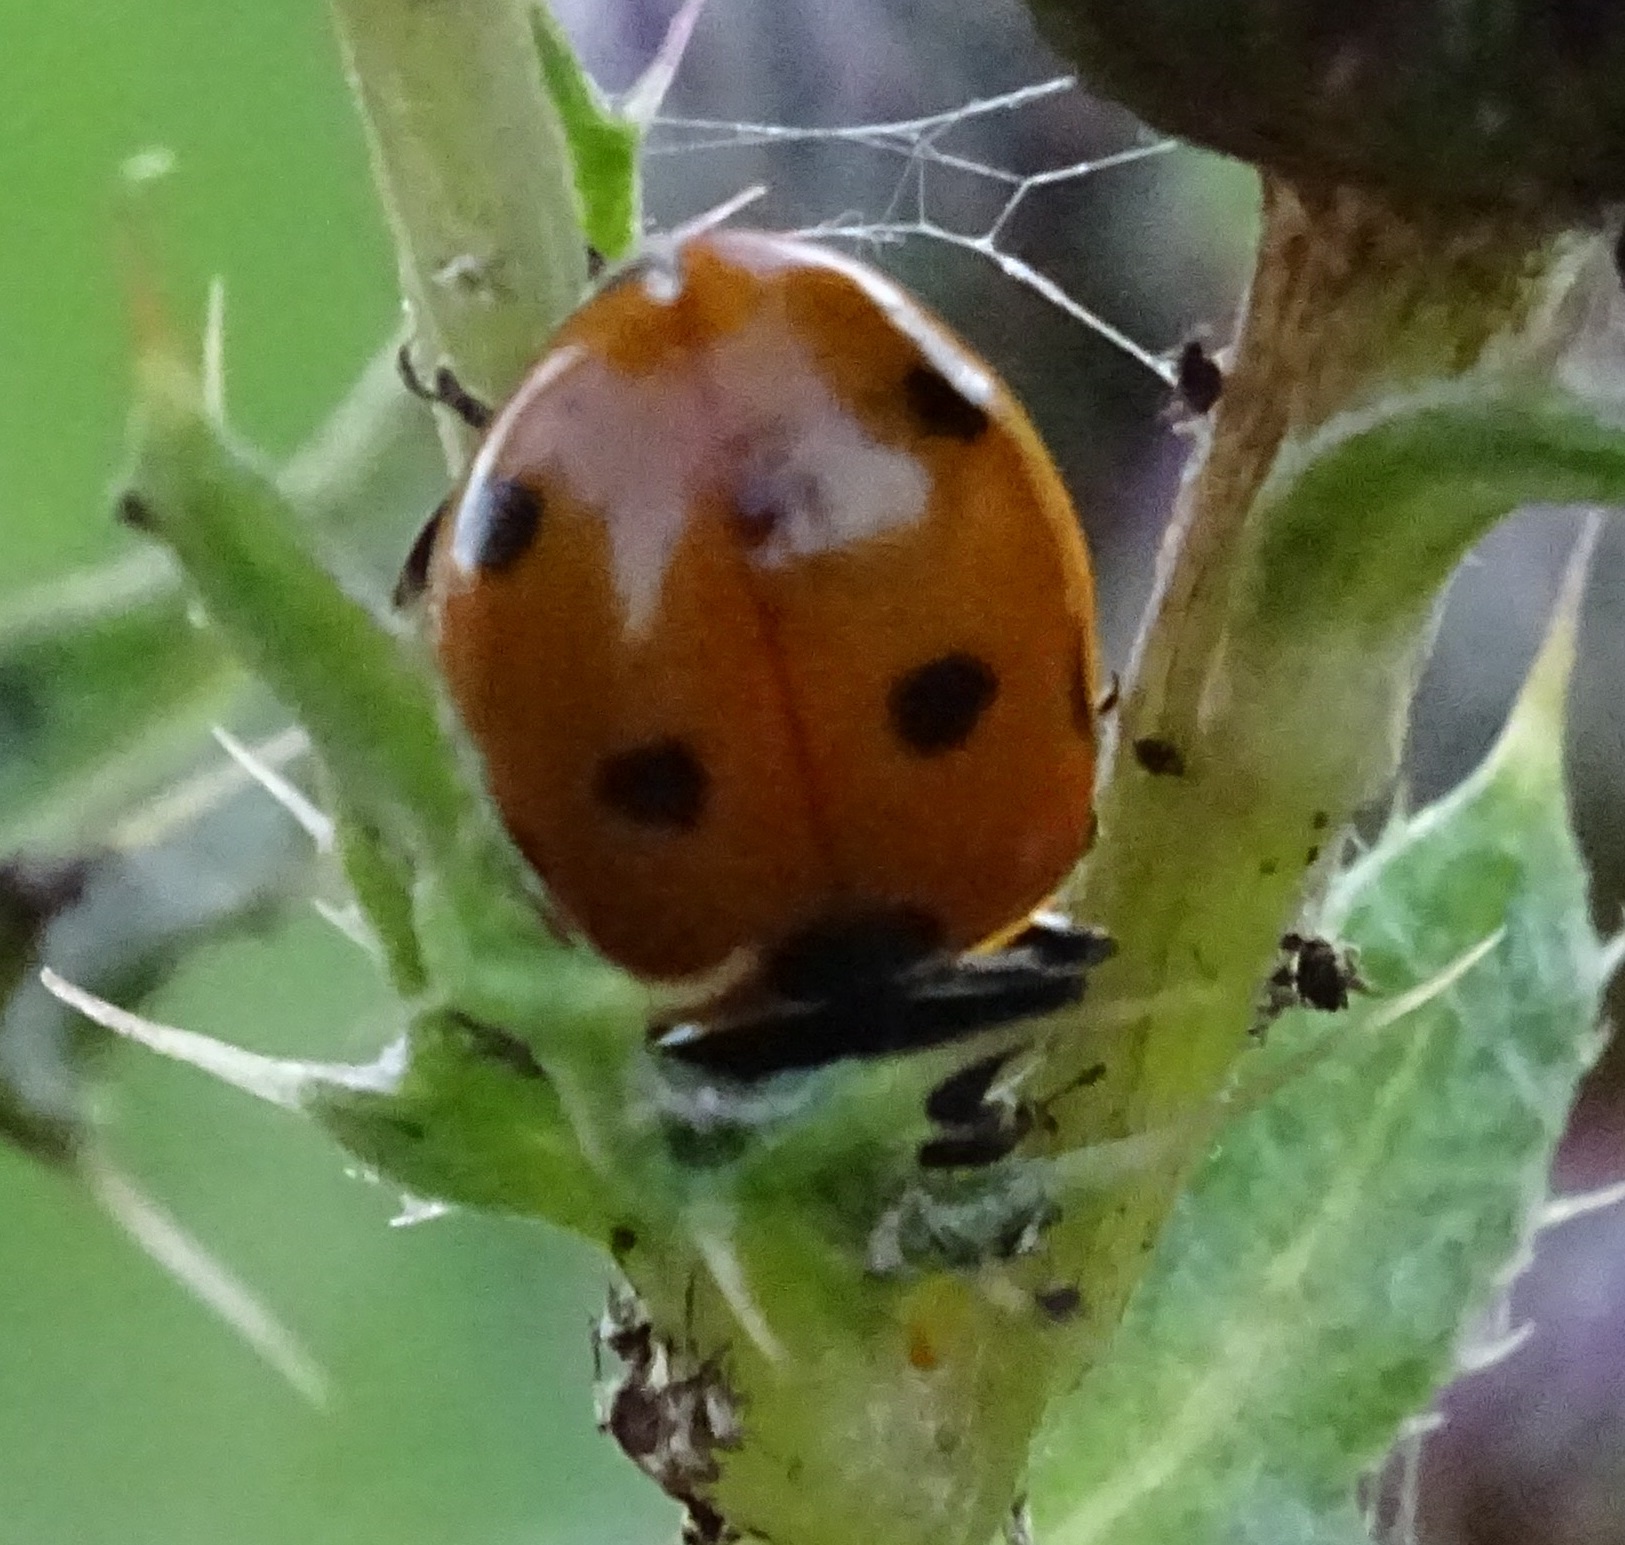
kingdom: Animalia
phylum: Arthropoda
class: Insecta
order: Coleoptera
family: Coccinellidae
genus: Coccinella
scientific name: Coccinella septempunctata
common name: Sevenspotted lady beetle
